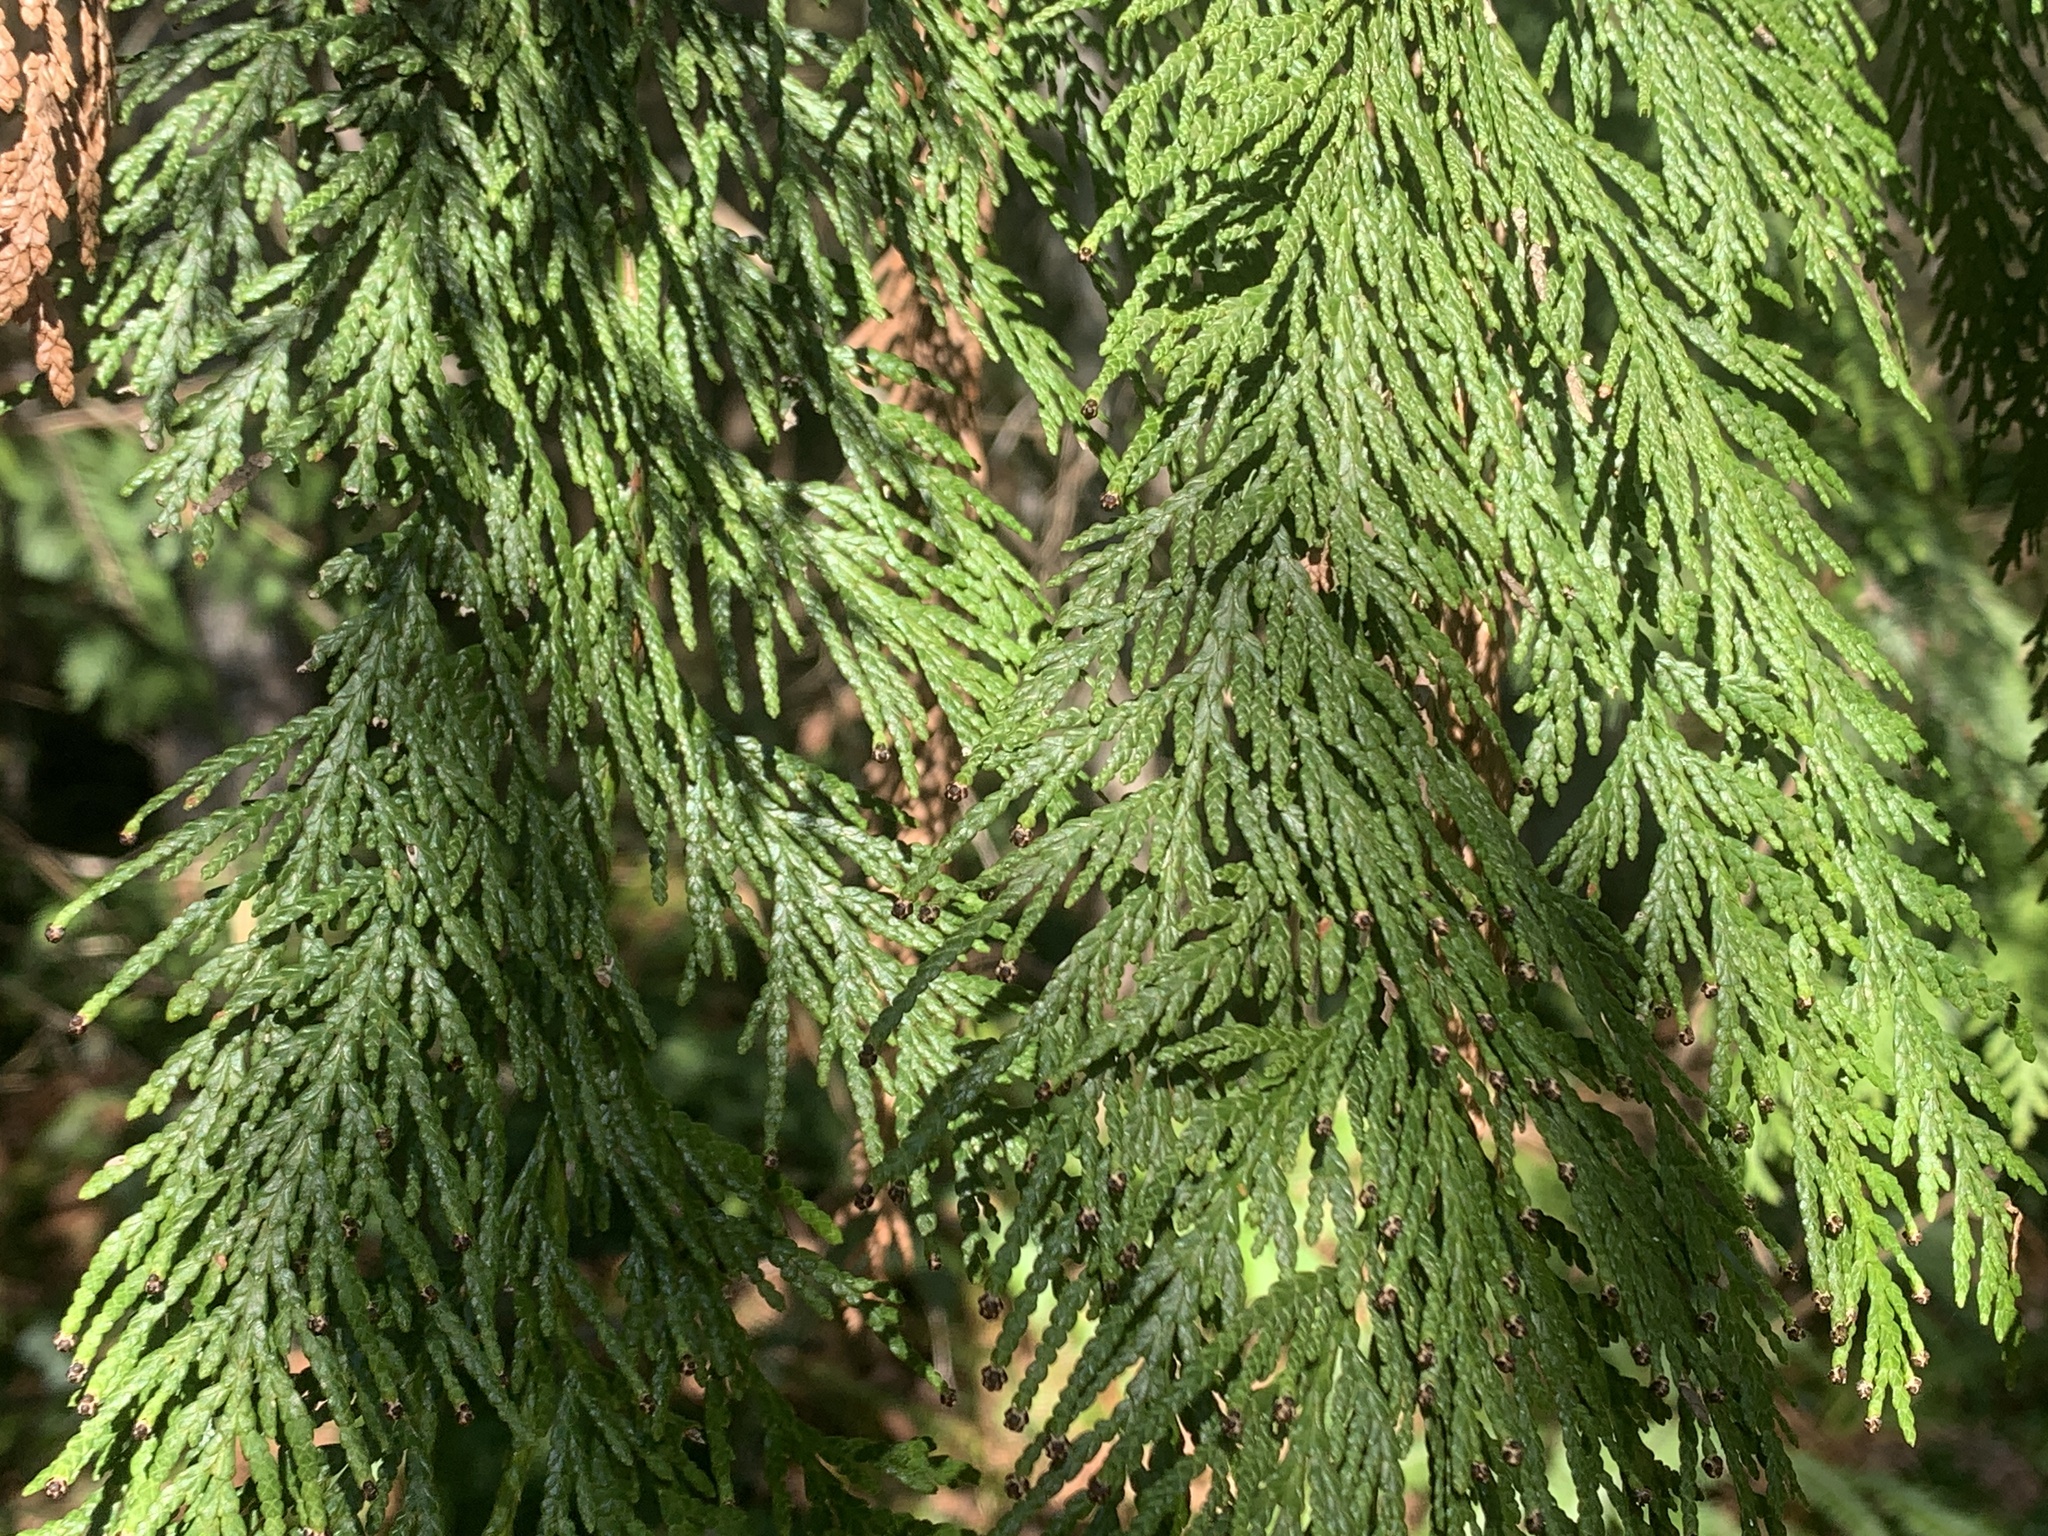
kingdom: Plantae
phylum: Tracheophyta
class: Pinopsida
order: Pinales
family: Cupressaceae
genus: Thuja
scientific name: Thuja plicata
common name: Western red-cedar
